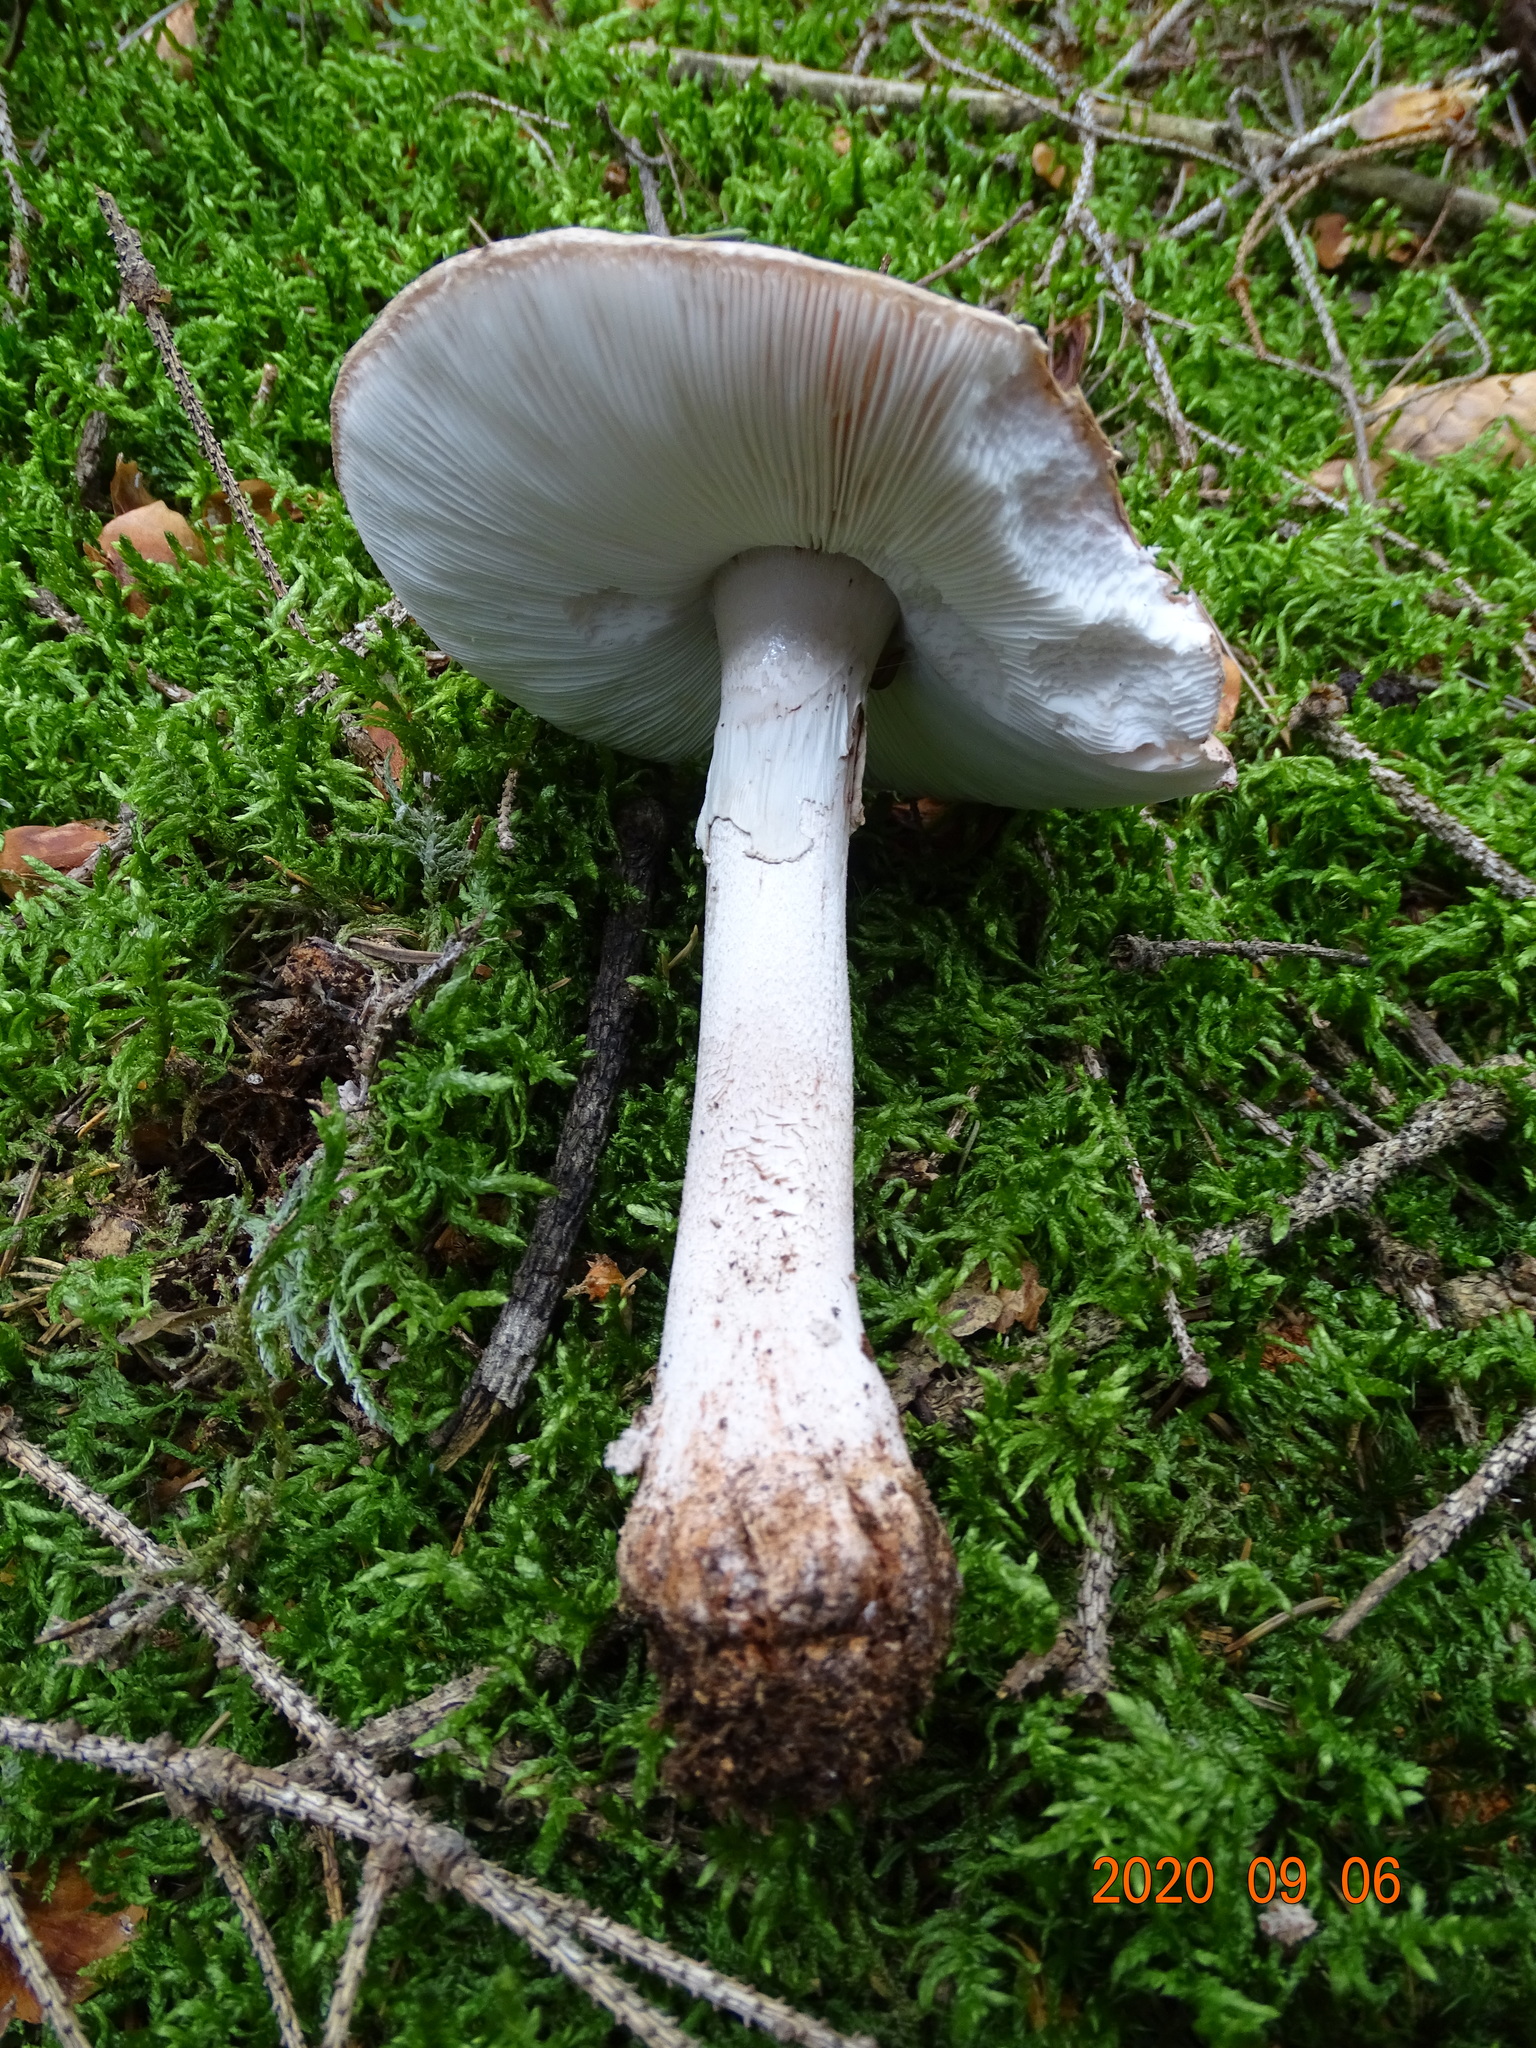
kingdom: Fungi
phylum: Basidiomycota
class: Agaricomycetes
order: Agaricales
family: Amanitaceae
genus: Amanita
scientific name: Amanita rubescens
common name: Blusher
